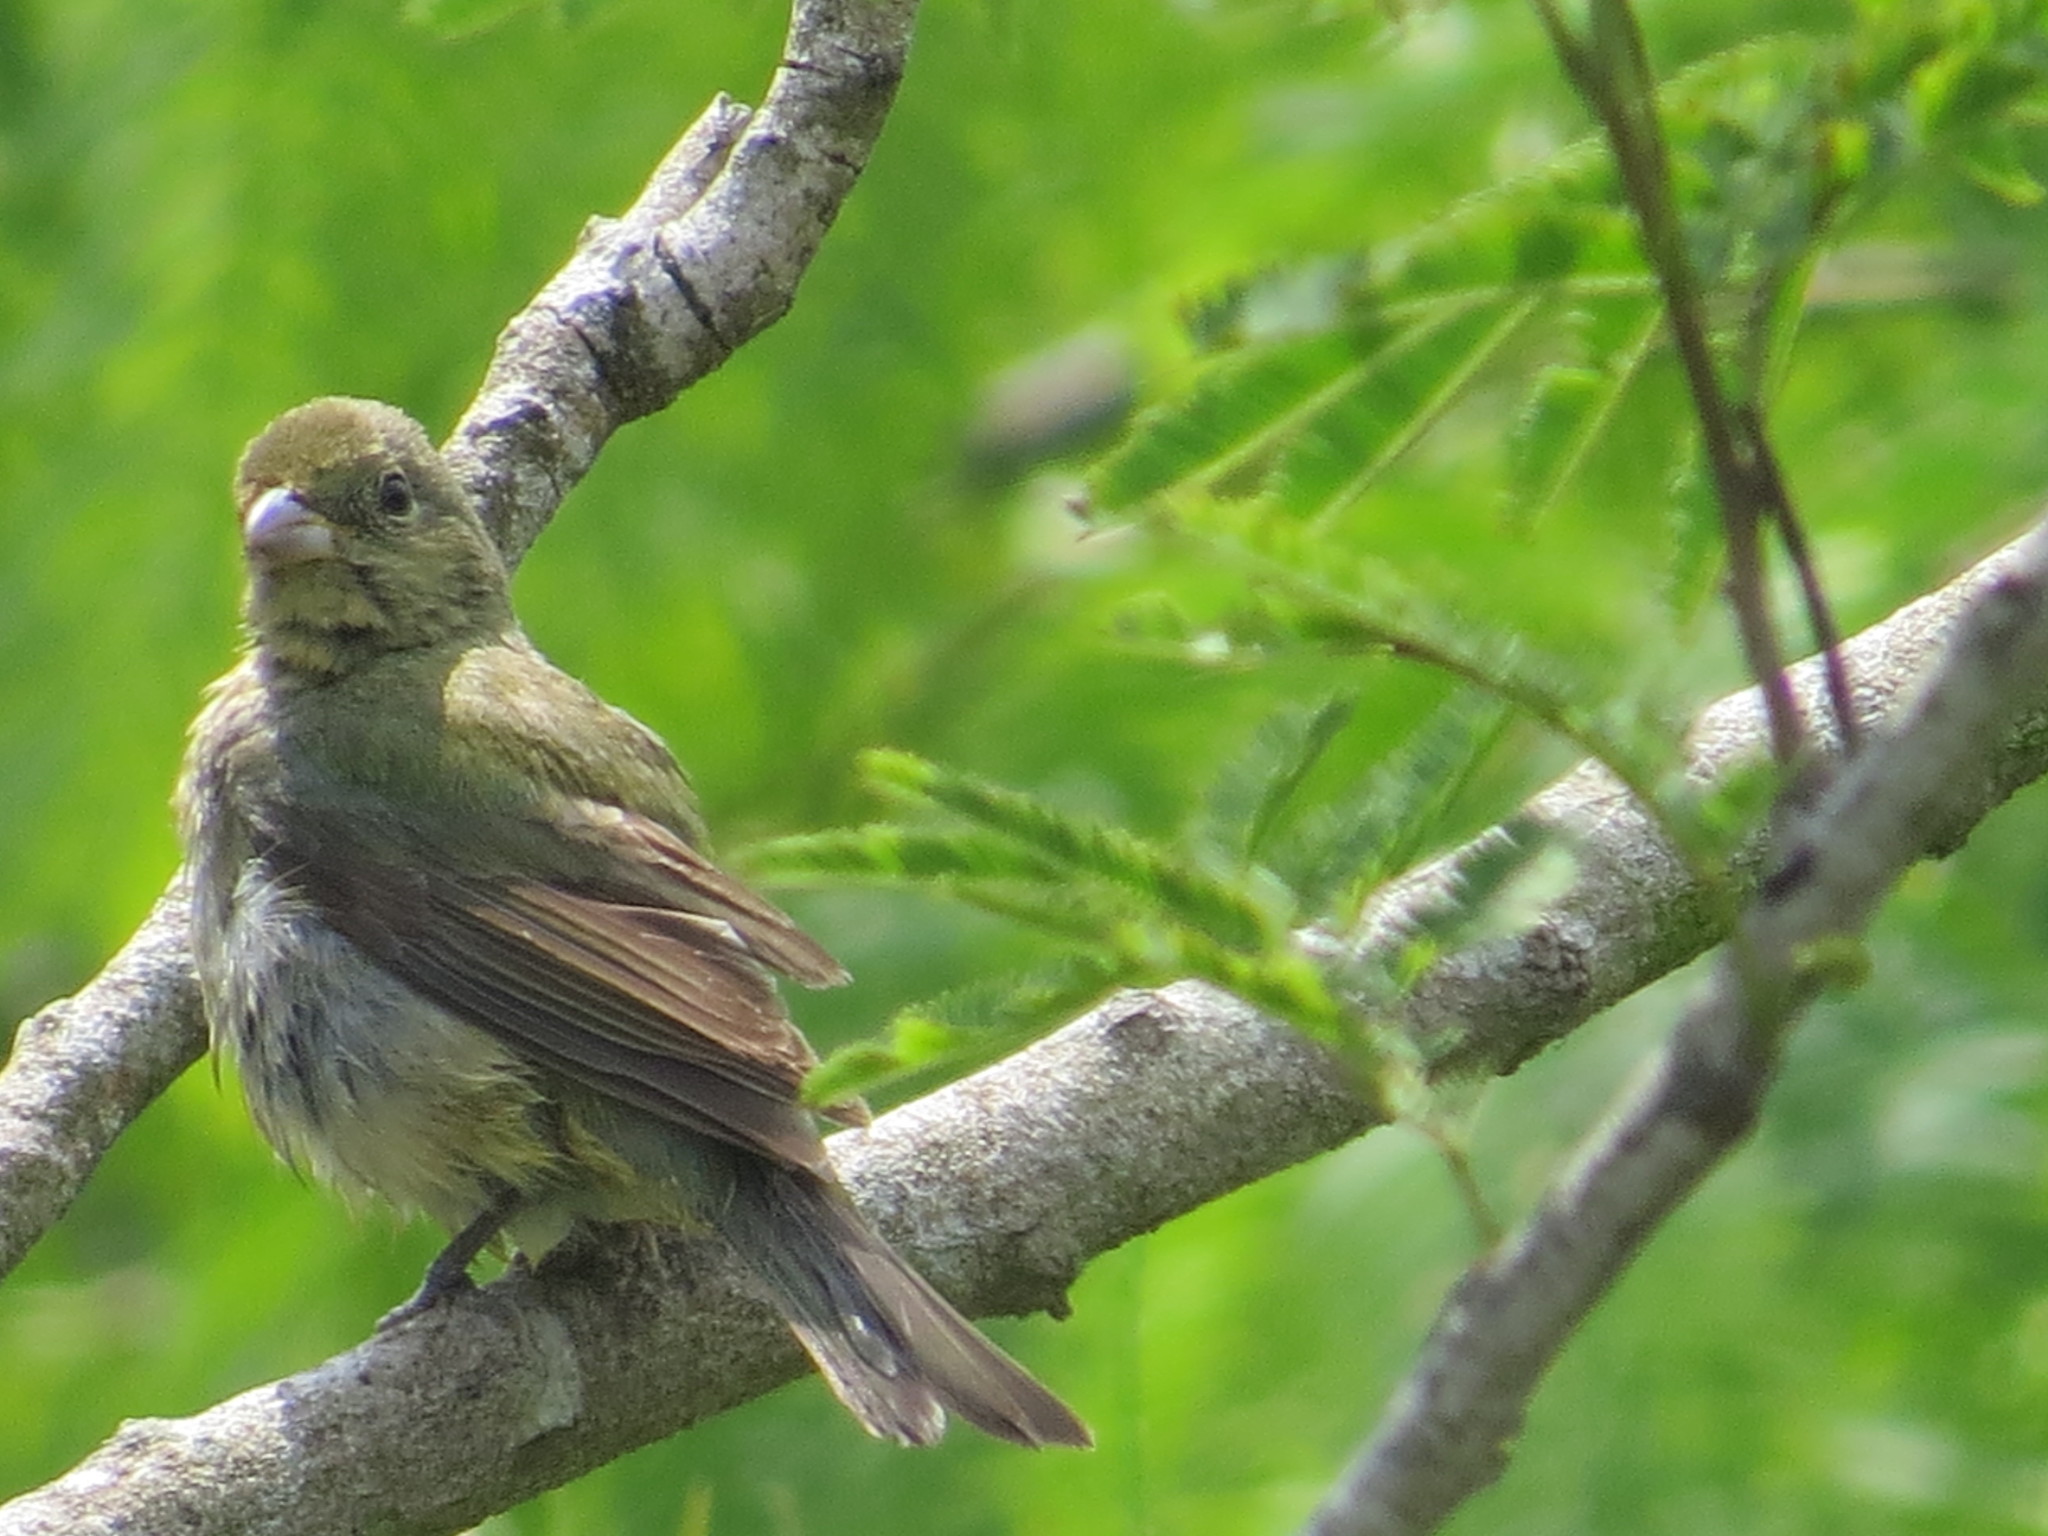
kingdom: Animalia
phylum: Chordata
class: Aves
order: Passeriformes
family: Cardinalidae
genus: Passerina
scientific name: Passerina ciris
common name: Painted bunting
